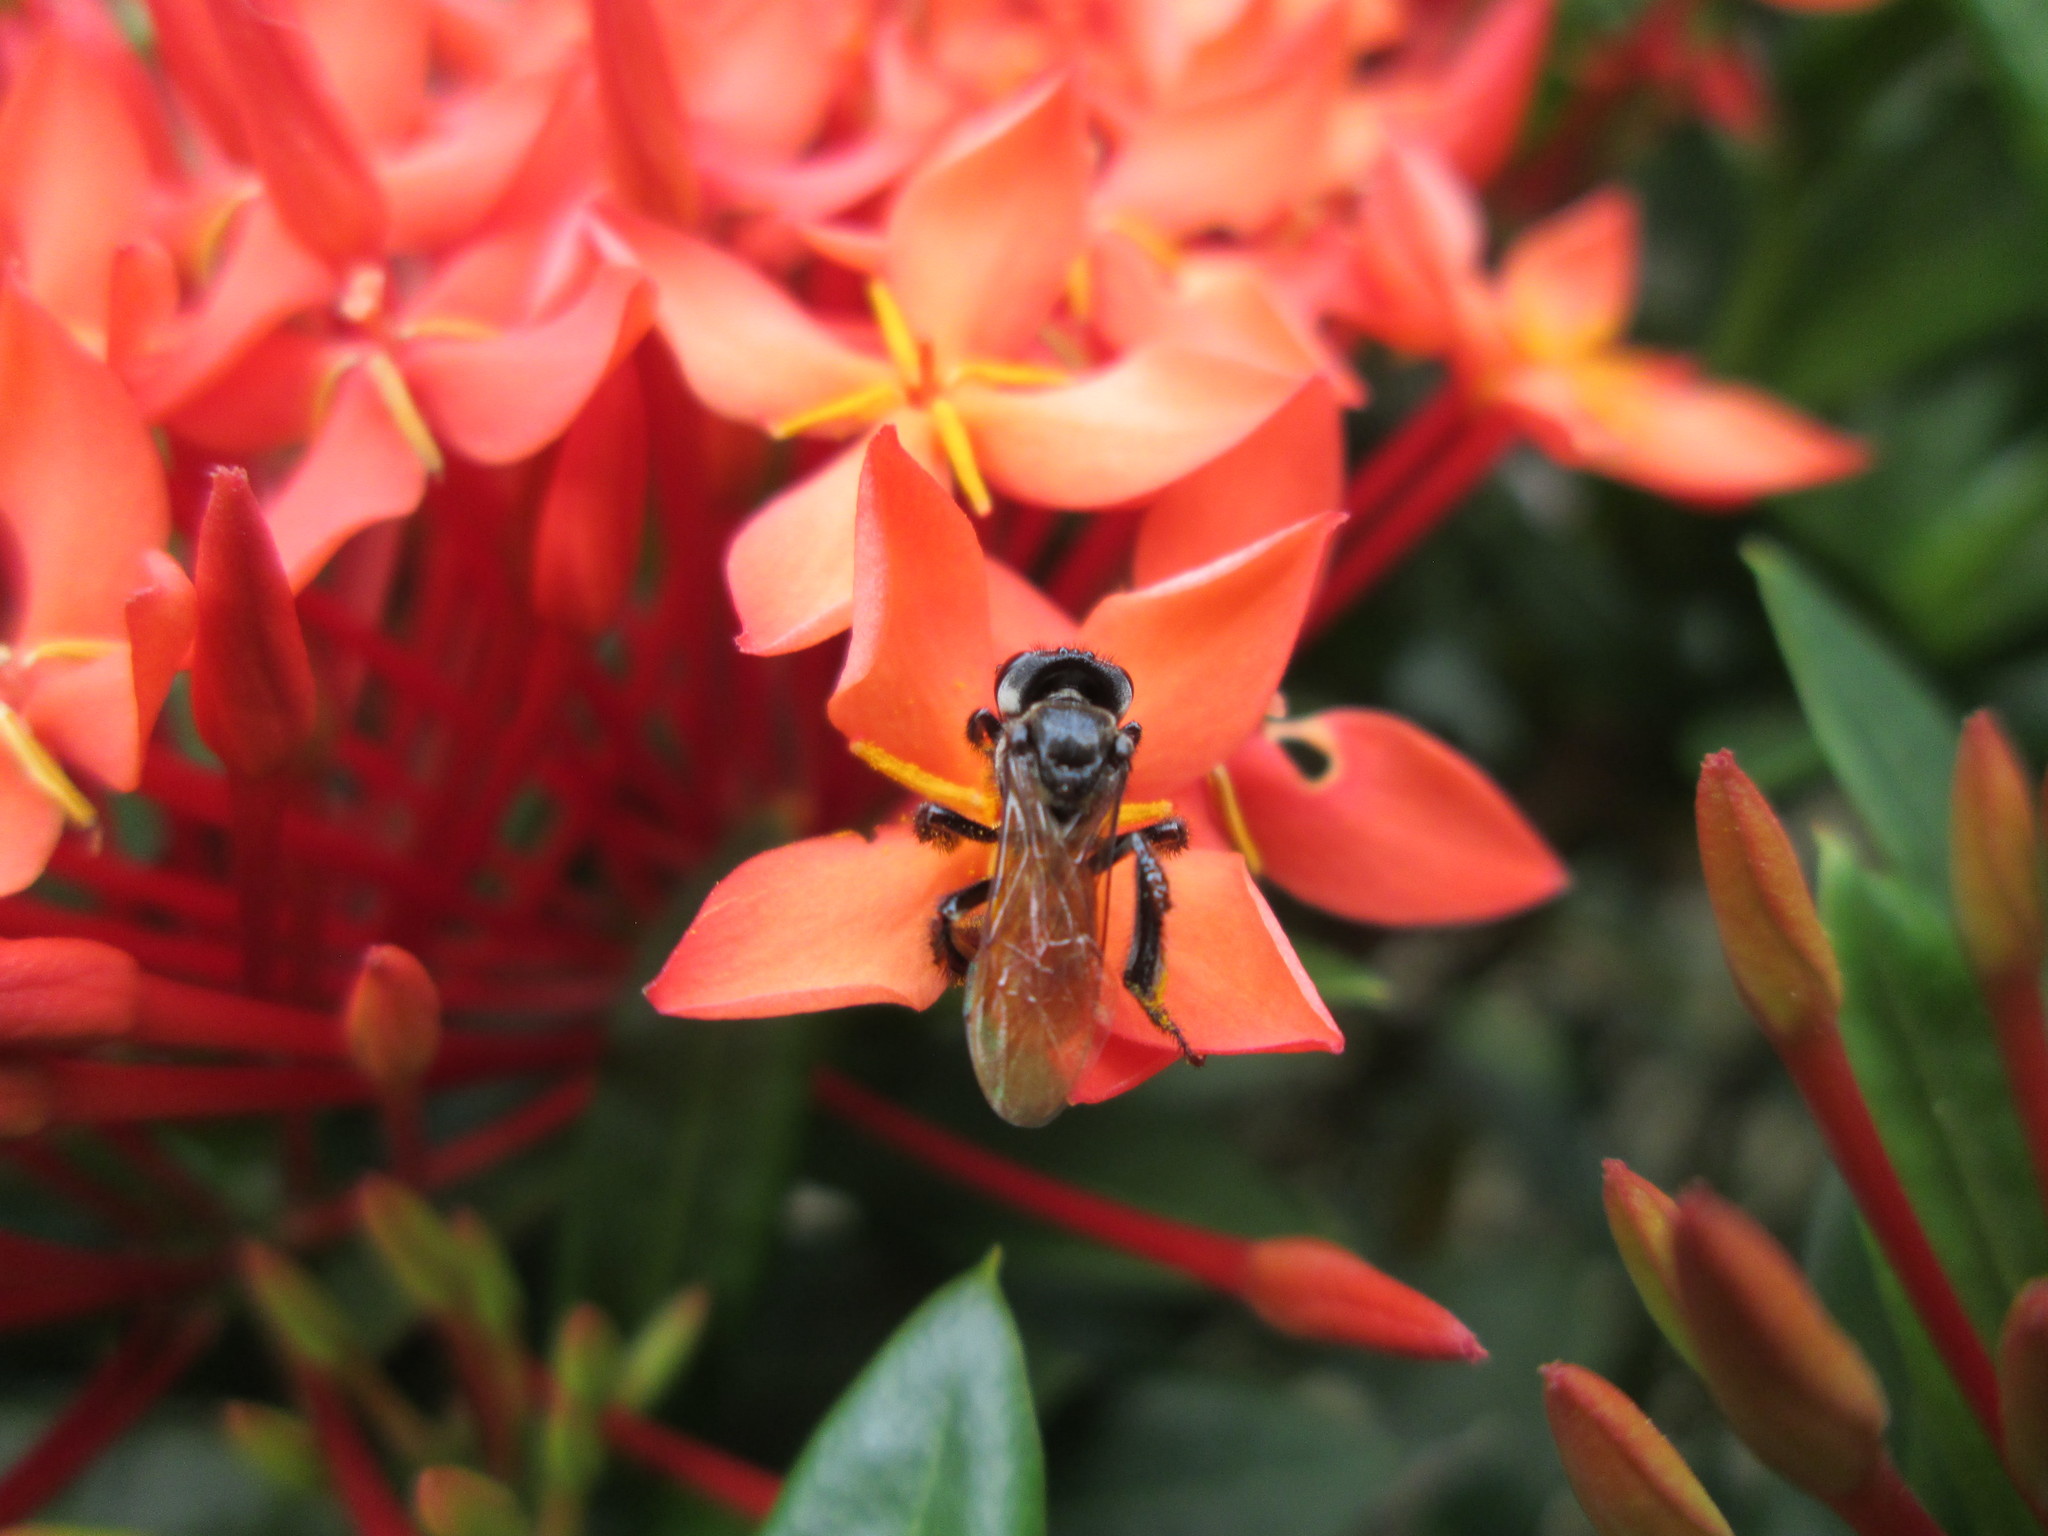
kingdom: Animalia
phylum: Arthropoda
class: Insecta
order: Hymenoptera
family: Apidae
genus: Trigona
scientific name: Trigona fulviventris
